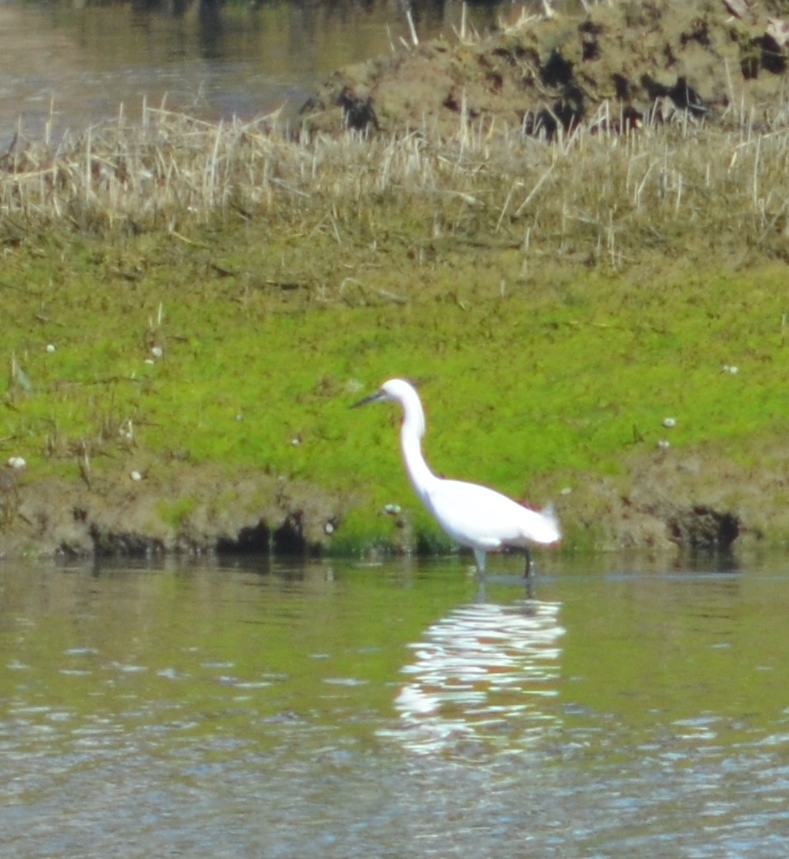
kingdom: Animalia
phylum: Chordata
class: Aves
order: Pelecaniformes
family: Ardeidae
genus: Egretta
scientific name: Egretta thula
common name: Snowy egret
